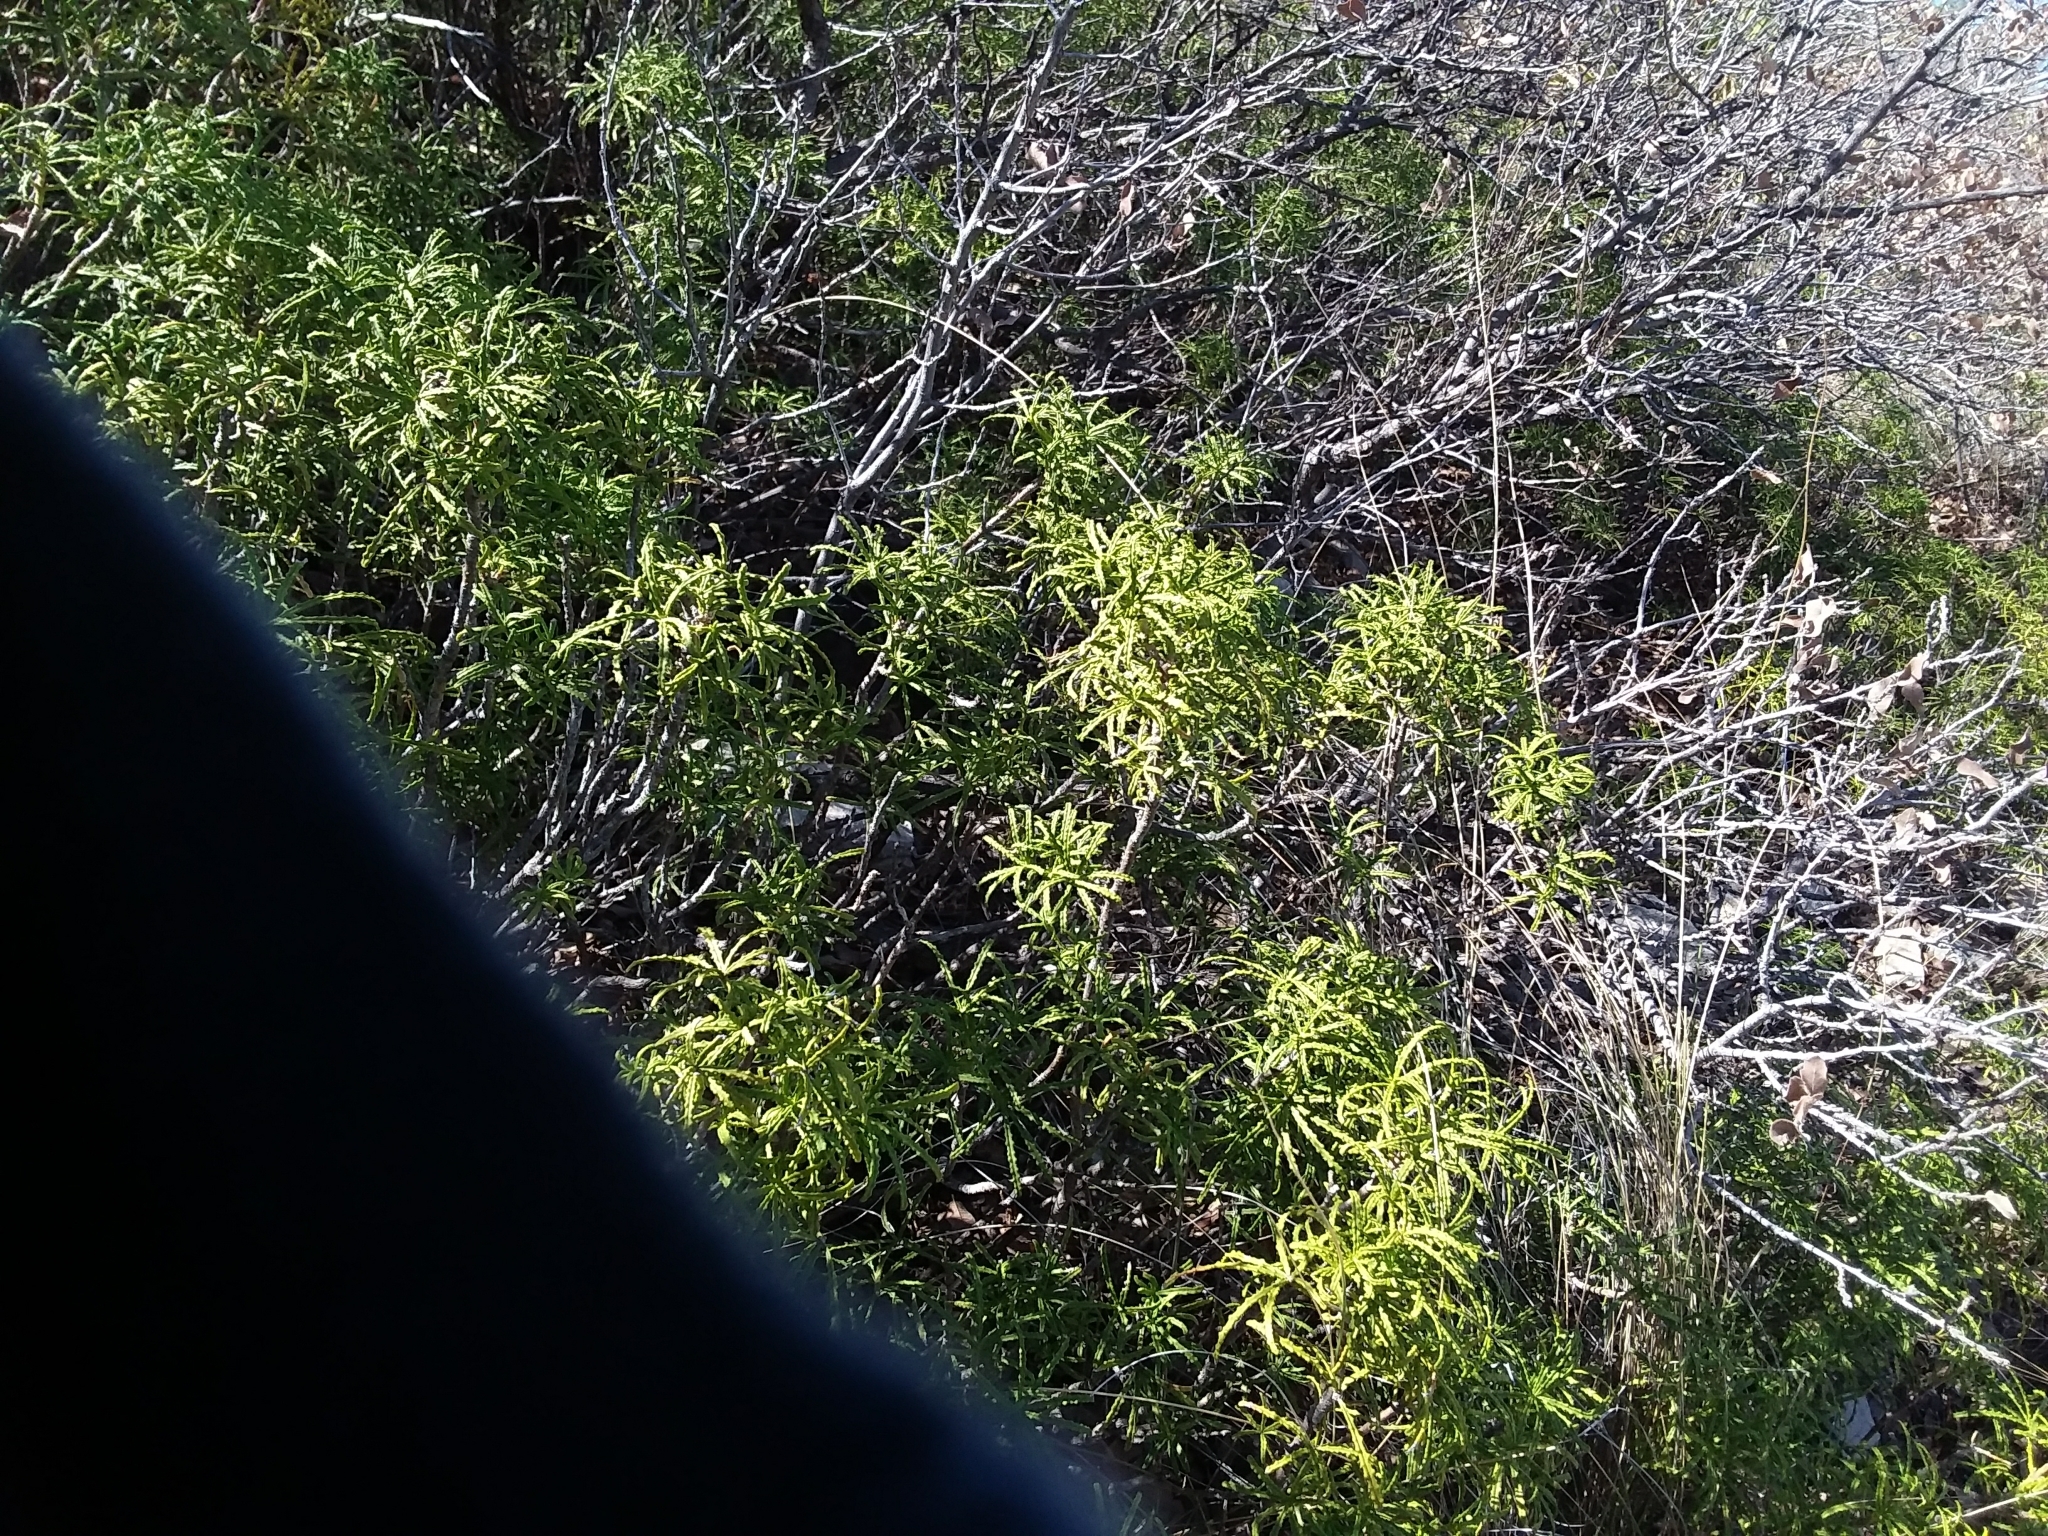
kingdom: Plantae
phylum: Tracheophyta
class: Magnoliopsida
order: Sapindales
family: Rutaceae
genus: Choisya
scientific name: Choisya dumosa
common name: Mexican-orange
